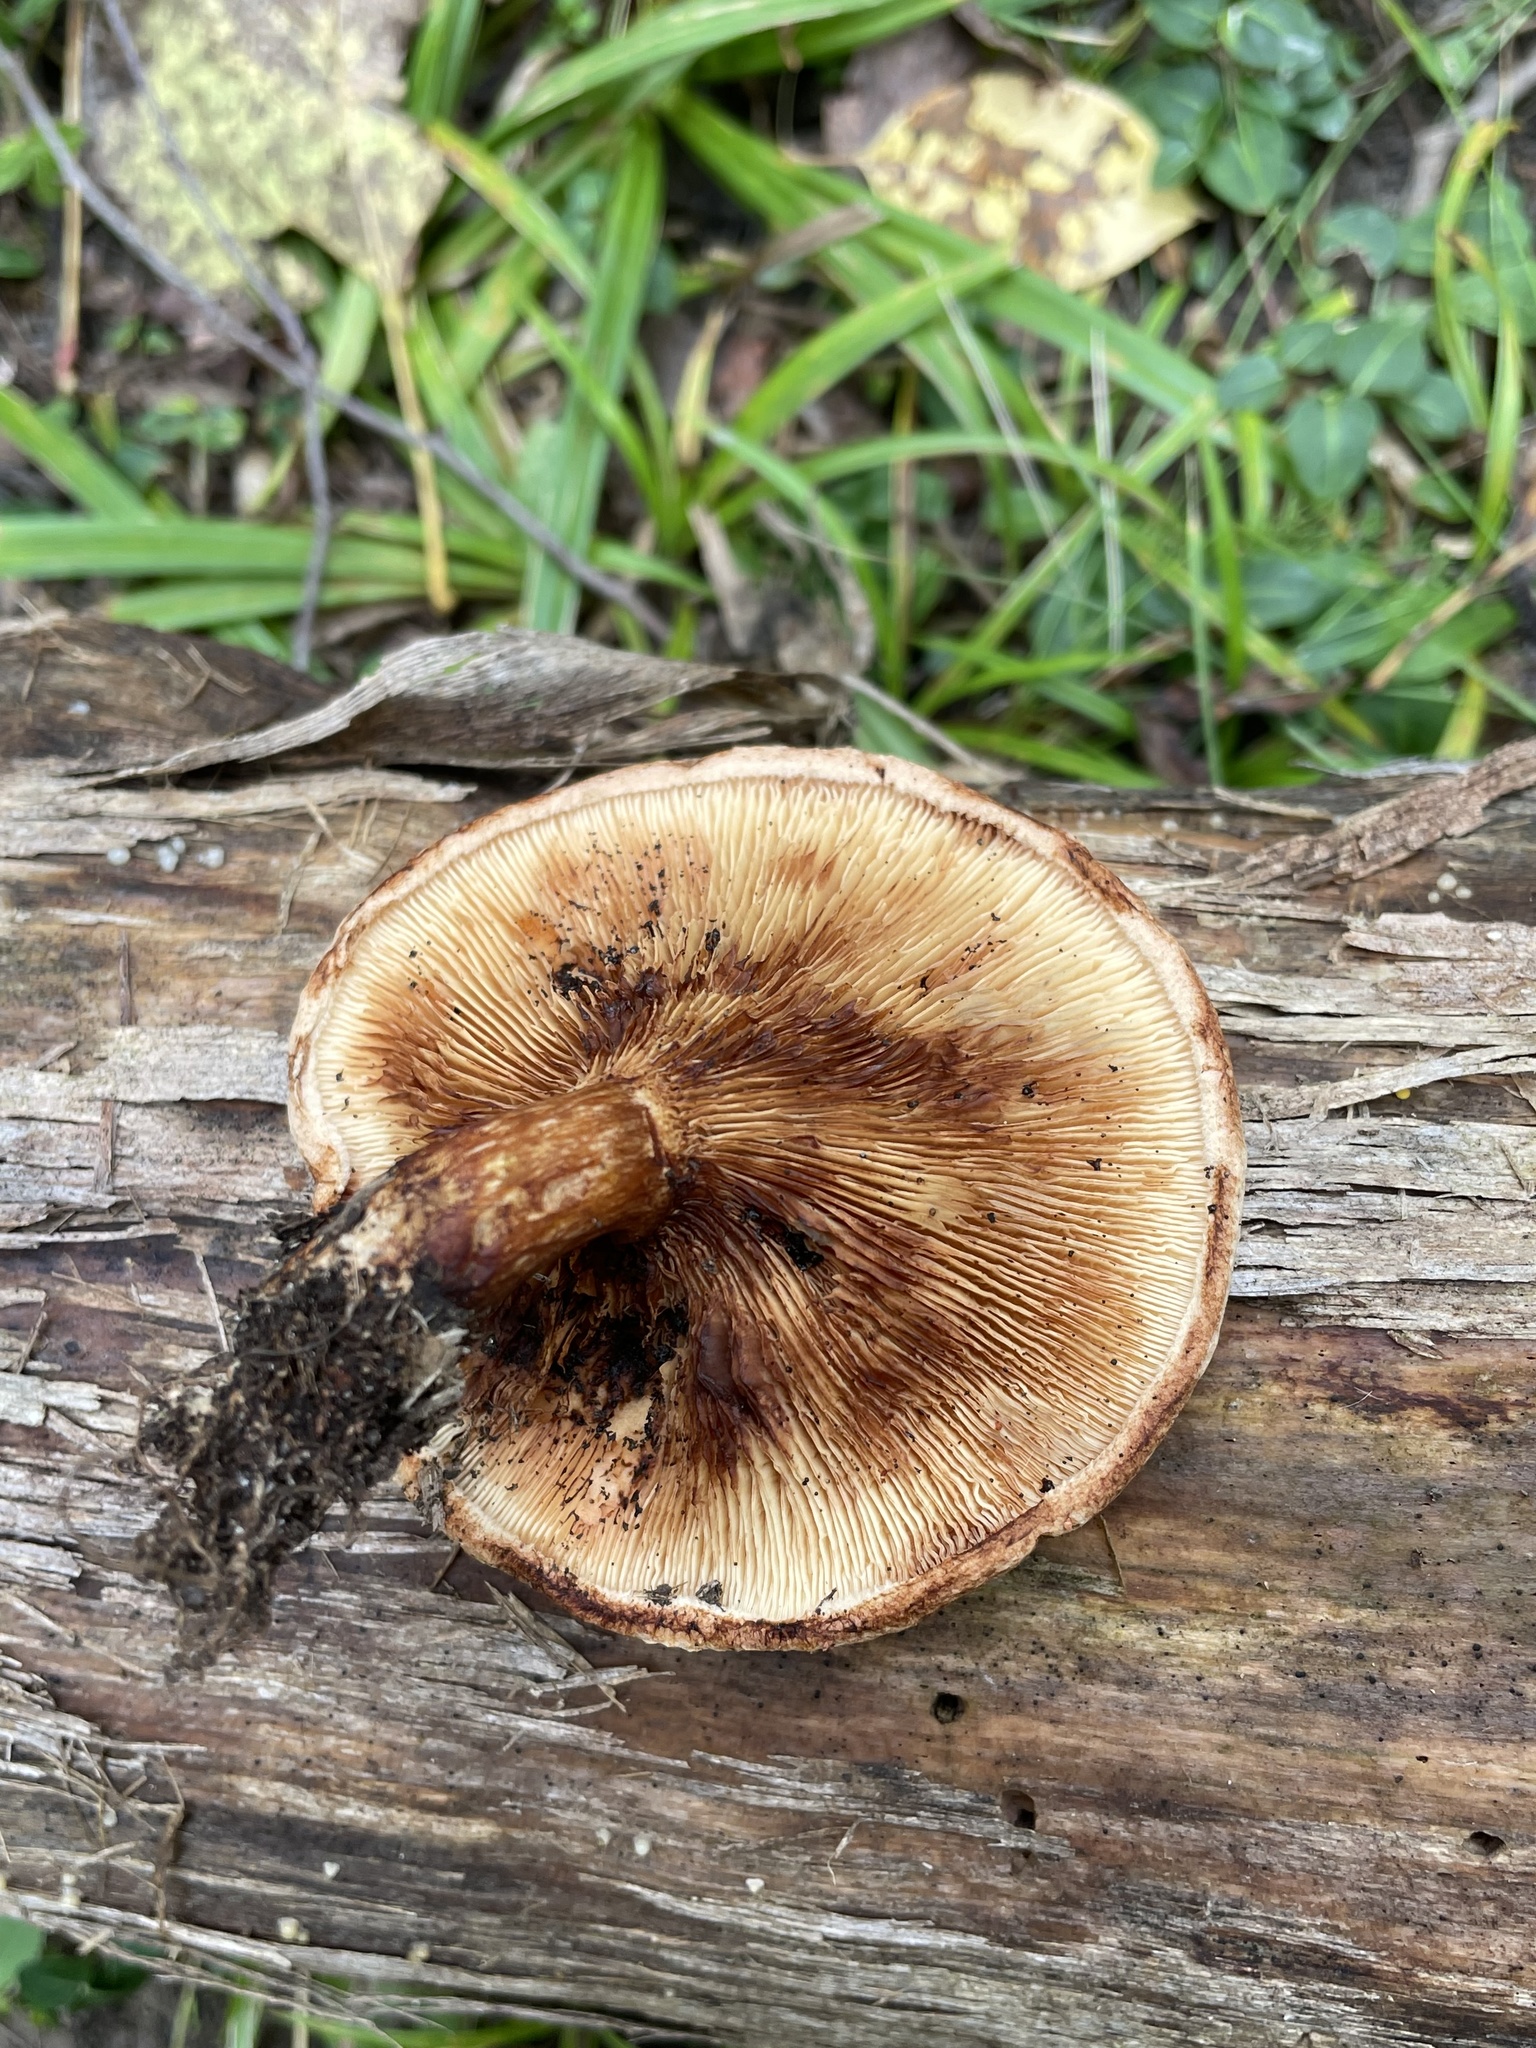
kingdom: Fungi
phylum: Basidiomycota
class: Agaricomycetes
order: Boletales
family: Paxillaceae
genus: Paxillus
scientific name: Paxillus involutus
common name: Brown roll rim
